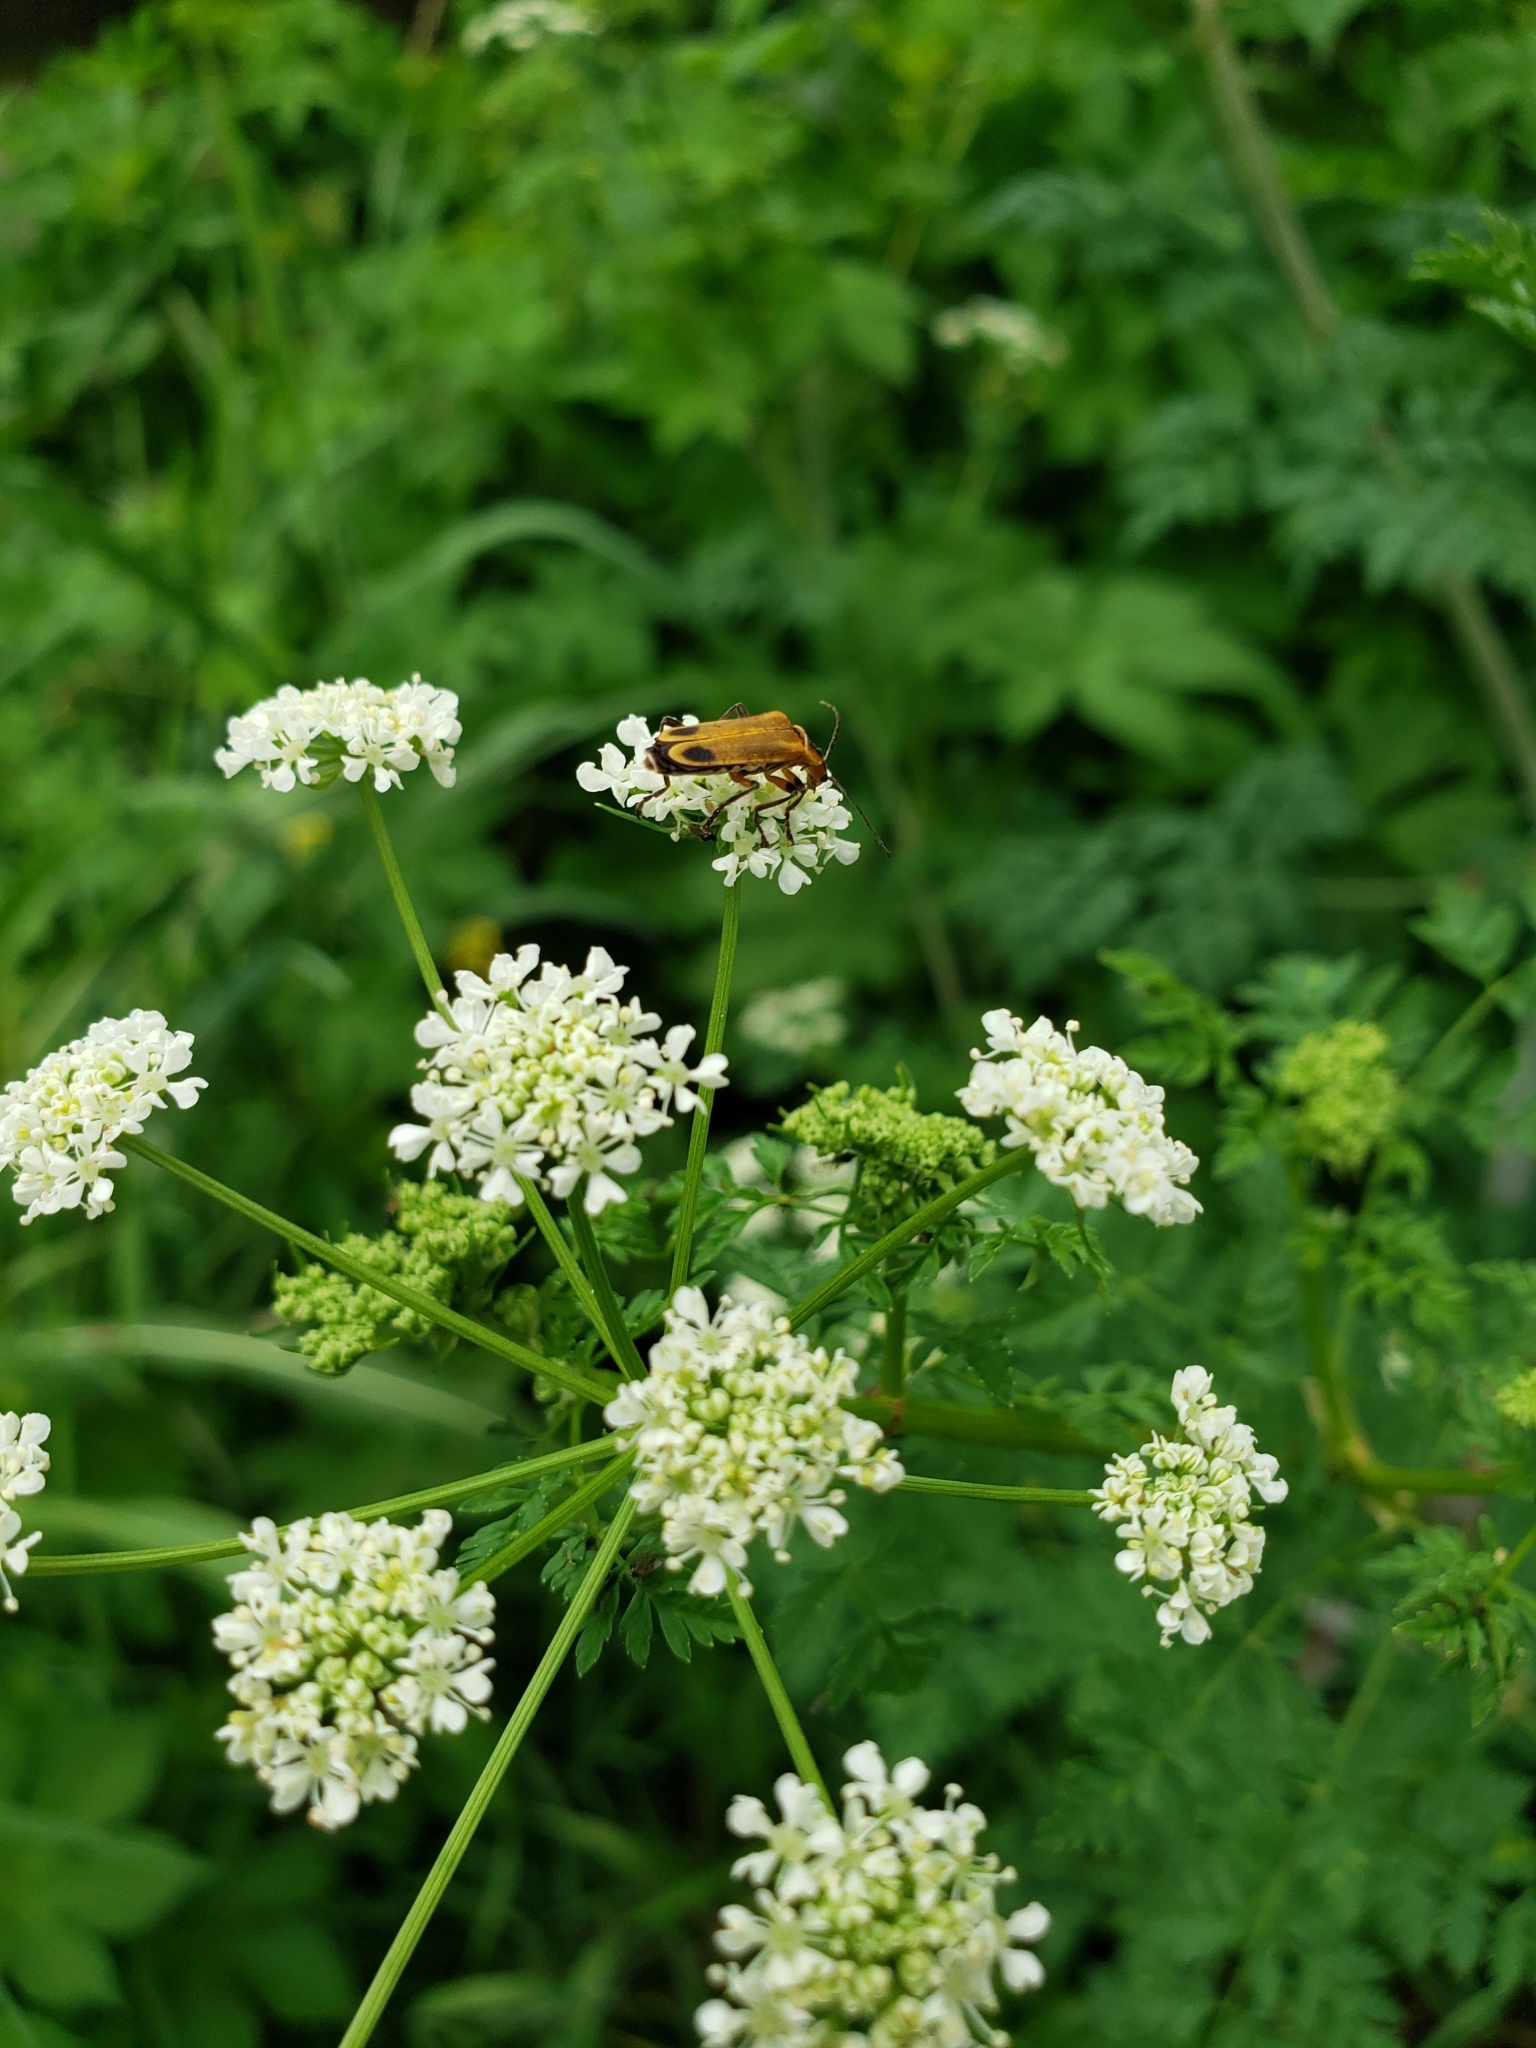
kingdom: Animalia
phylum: Arthropoda
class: Insecta
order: Coleoptera
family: Cantharidae
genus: Chauliognathus
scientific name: Chauliognathus marginatus
